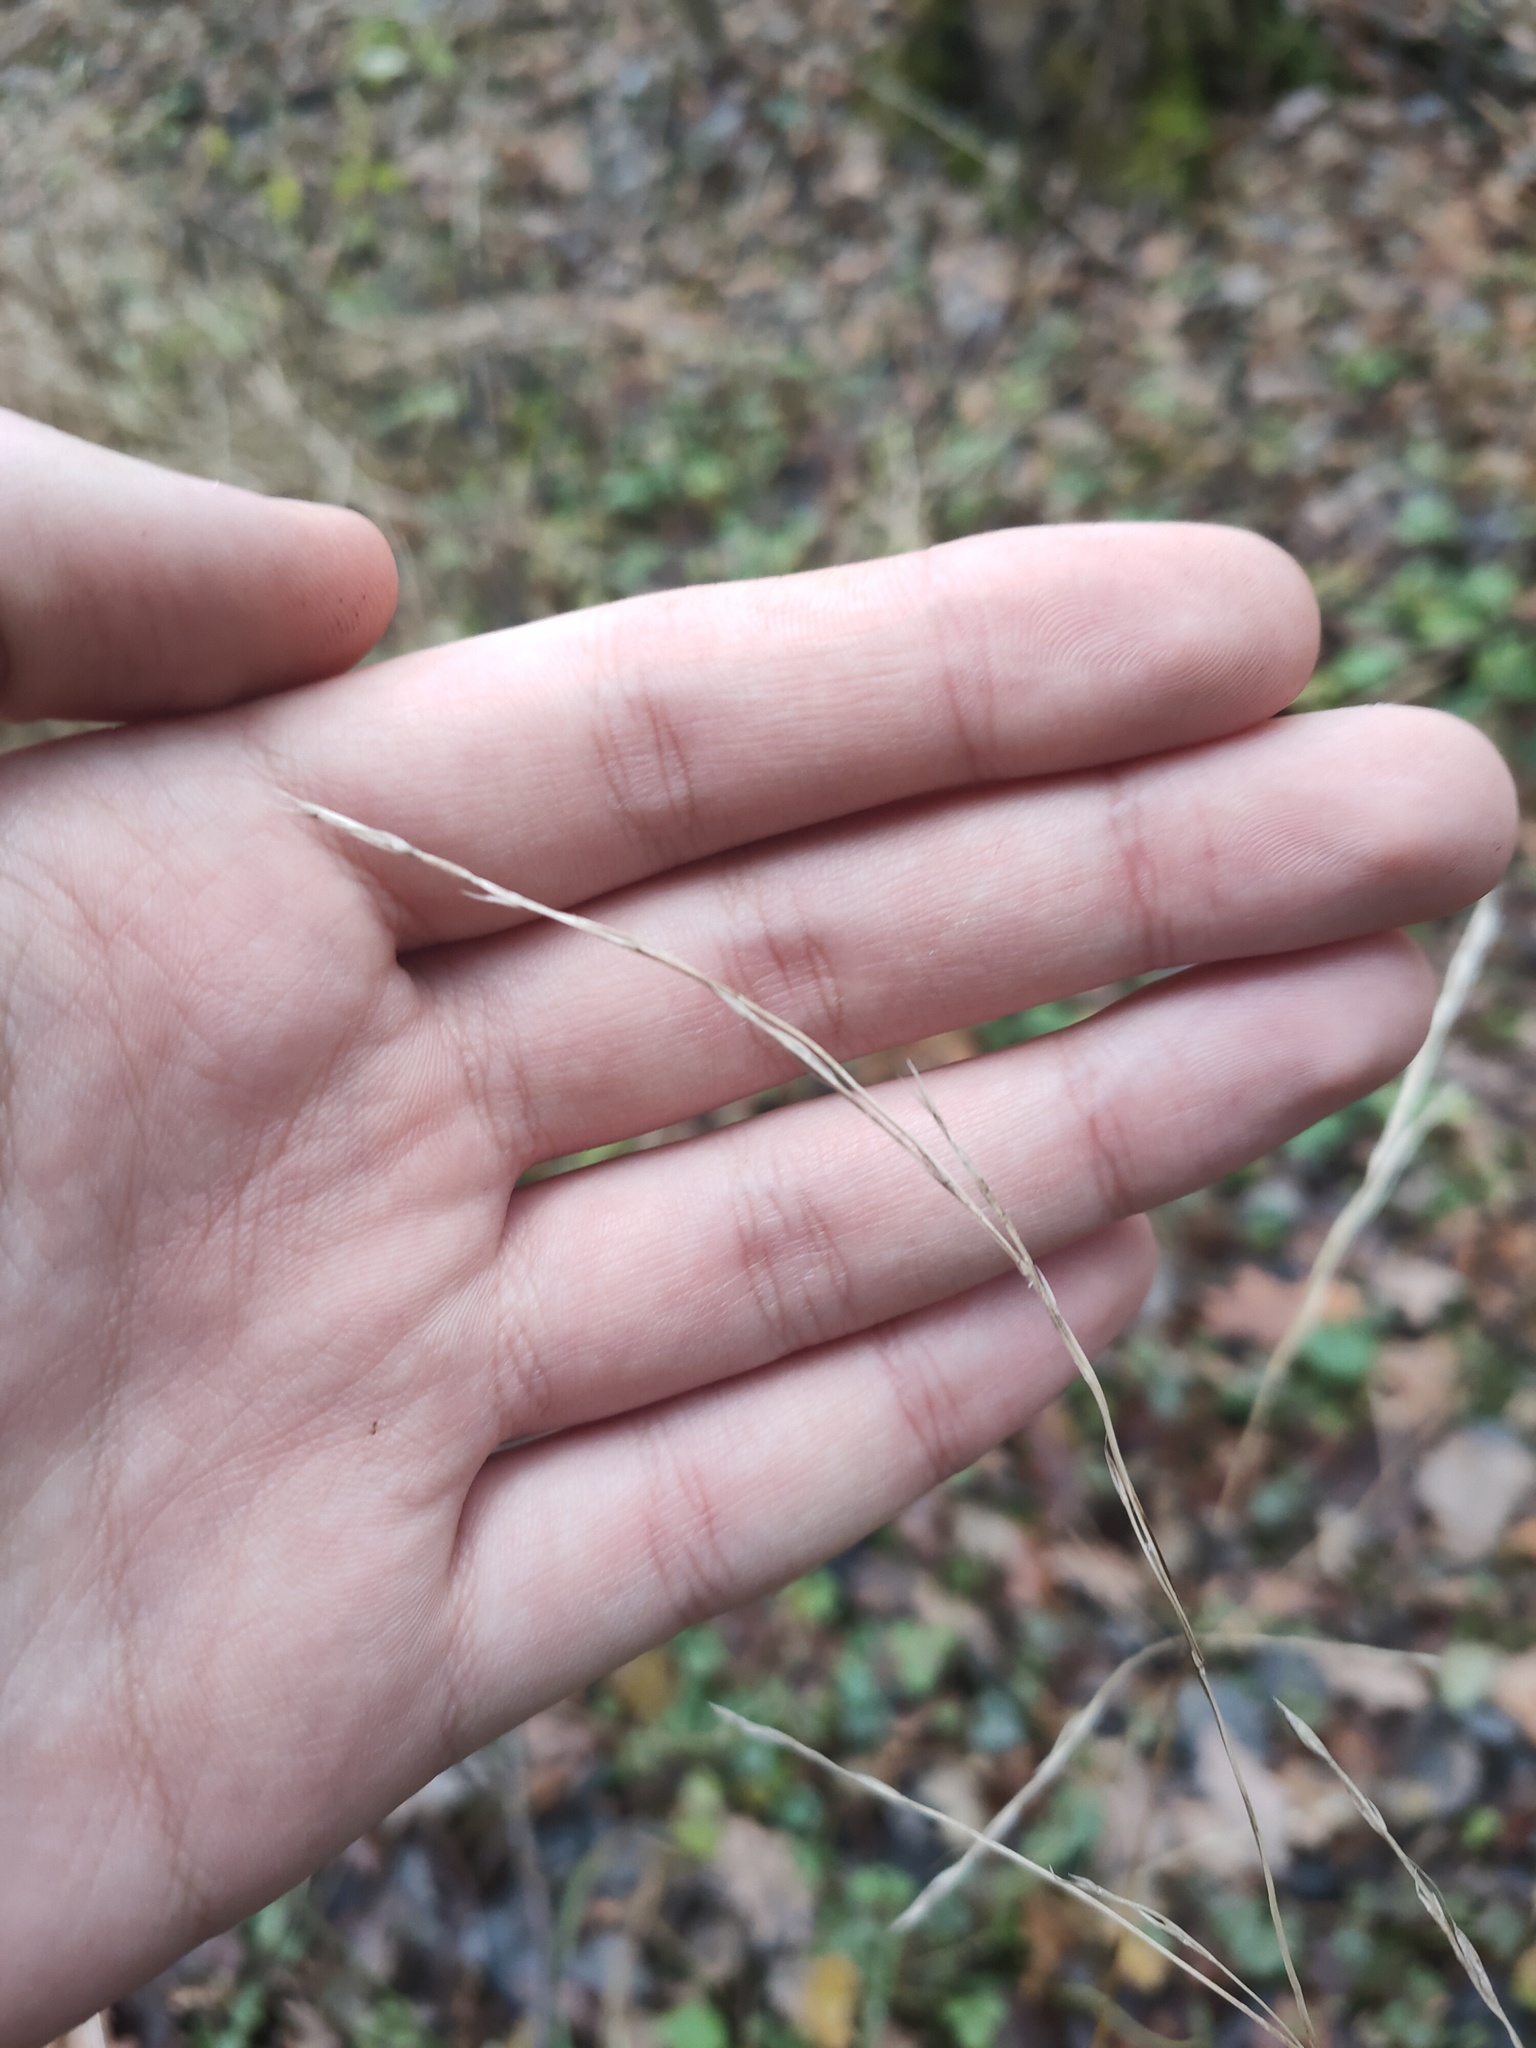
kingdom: Plantae
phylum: Tracheophyta
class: Liliopsida
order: Poales
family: Poaceae
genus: Lolium
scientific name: Lolium giganteum
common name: Giant fescue
